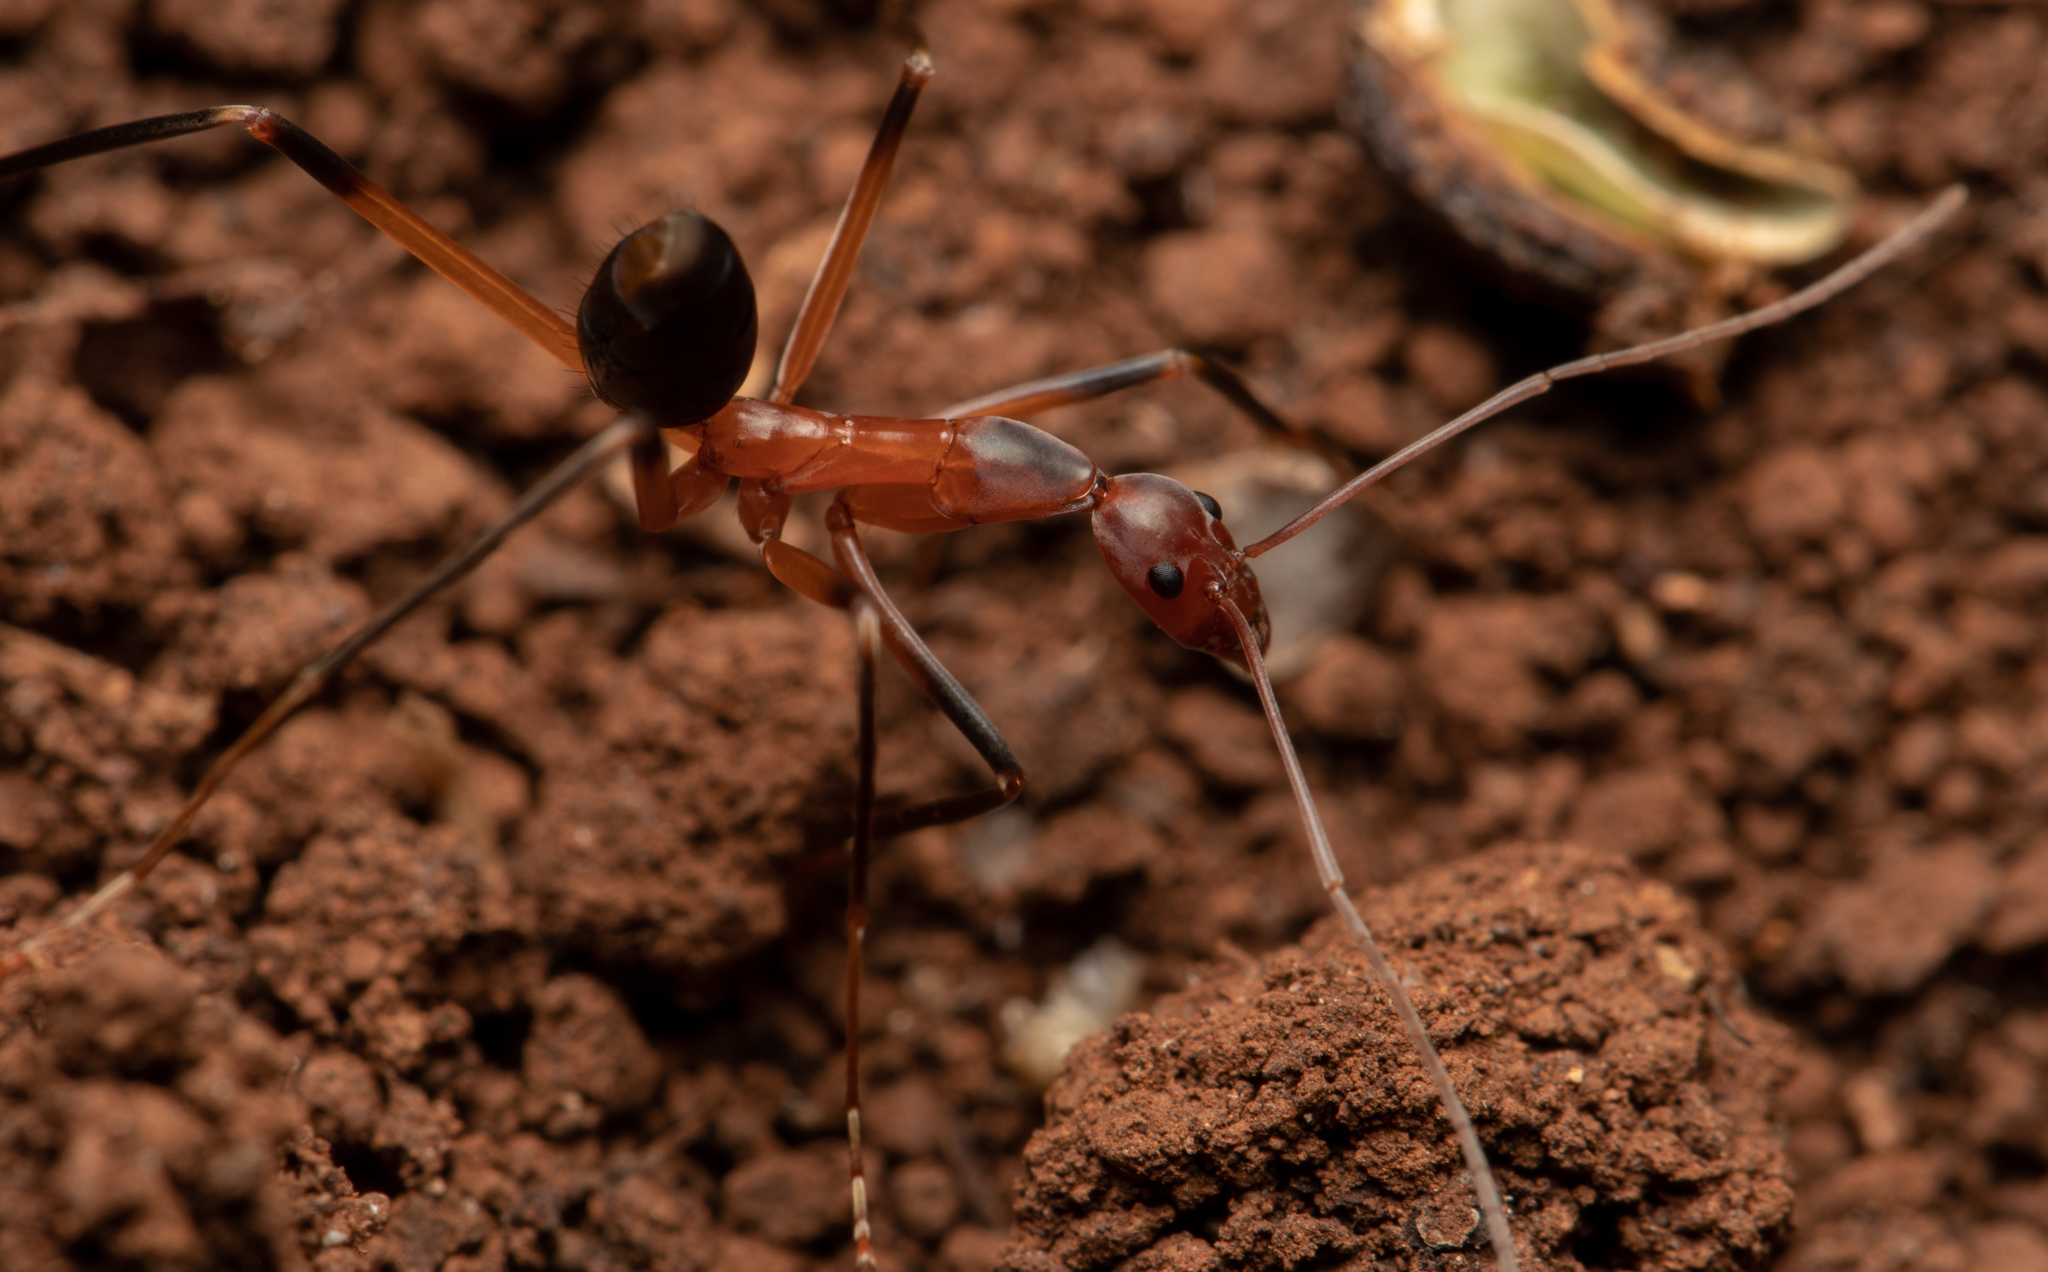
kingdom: Animalia
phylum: Arthropoda
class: Insecta
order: Hymenoptera
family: Formicidae
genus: Leptomyrmex
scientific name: Leptomyrmex cnemidatus
